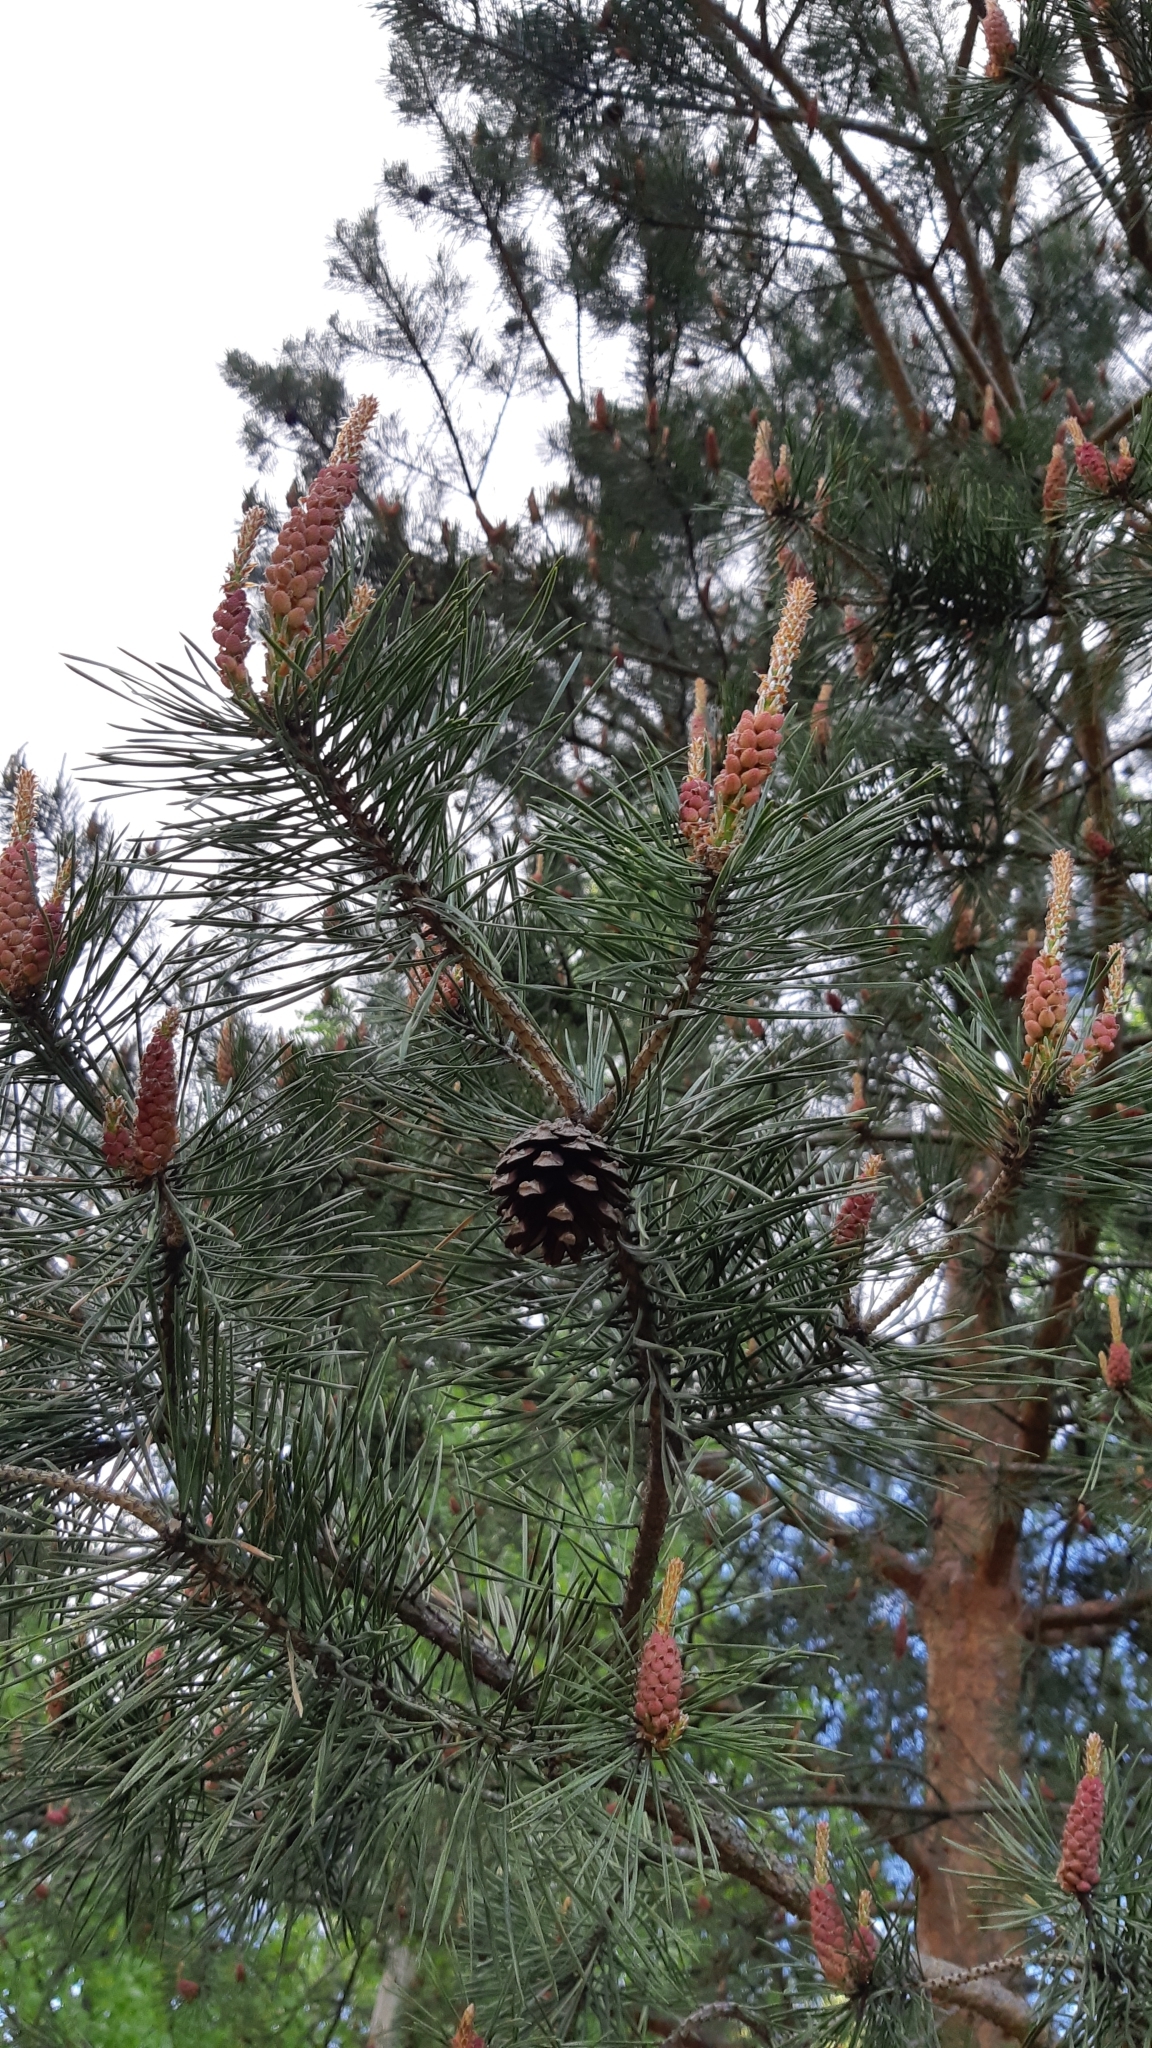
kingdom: Plantae
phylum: Tracheophyta
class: Pinopsida
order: Pinales
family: Pinaceae
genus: Pinus
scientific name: Pinus sylvestris
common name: Scots pine
